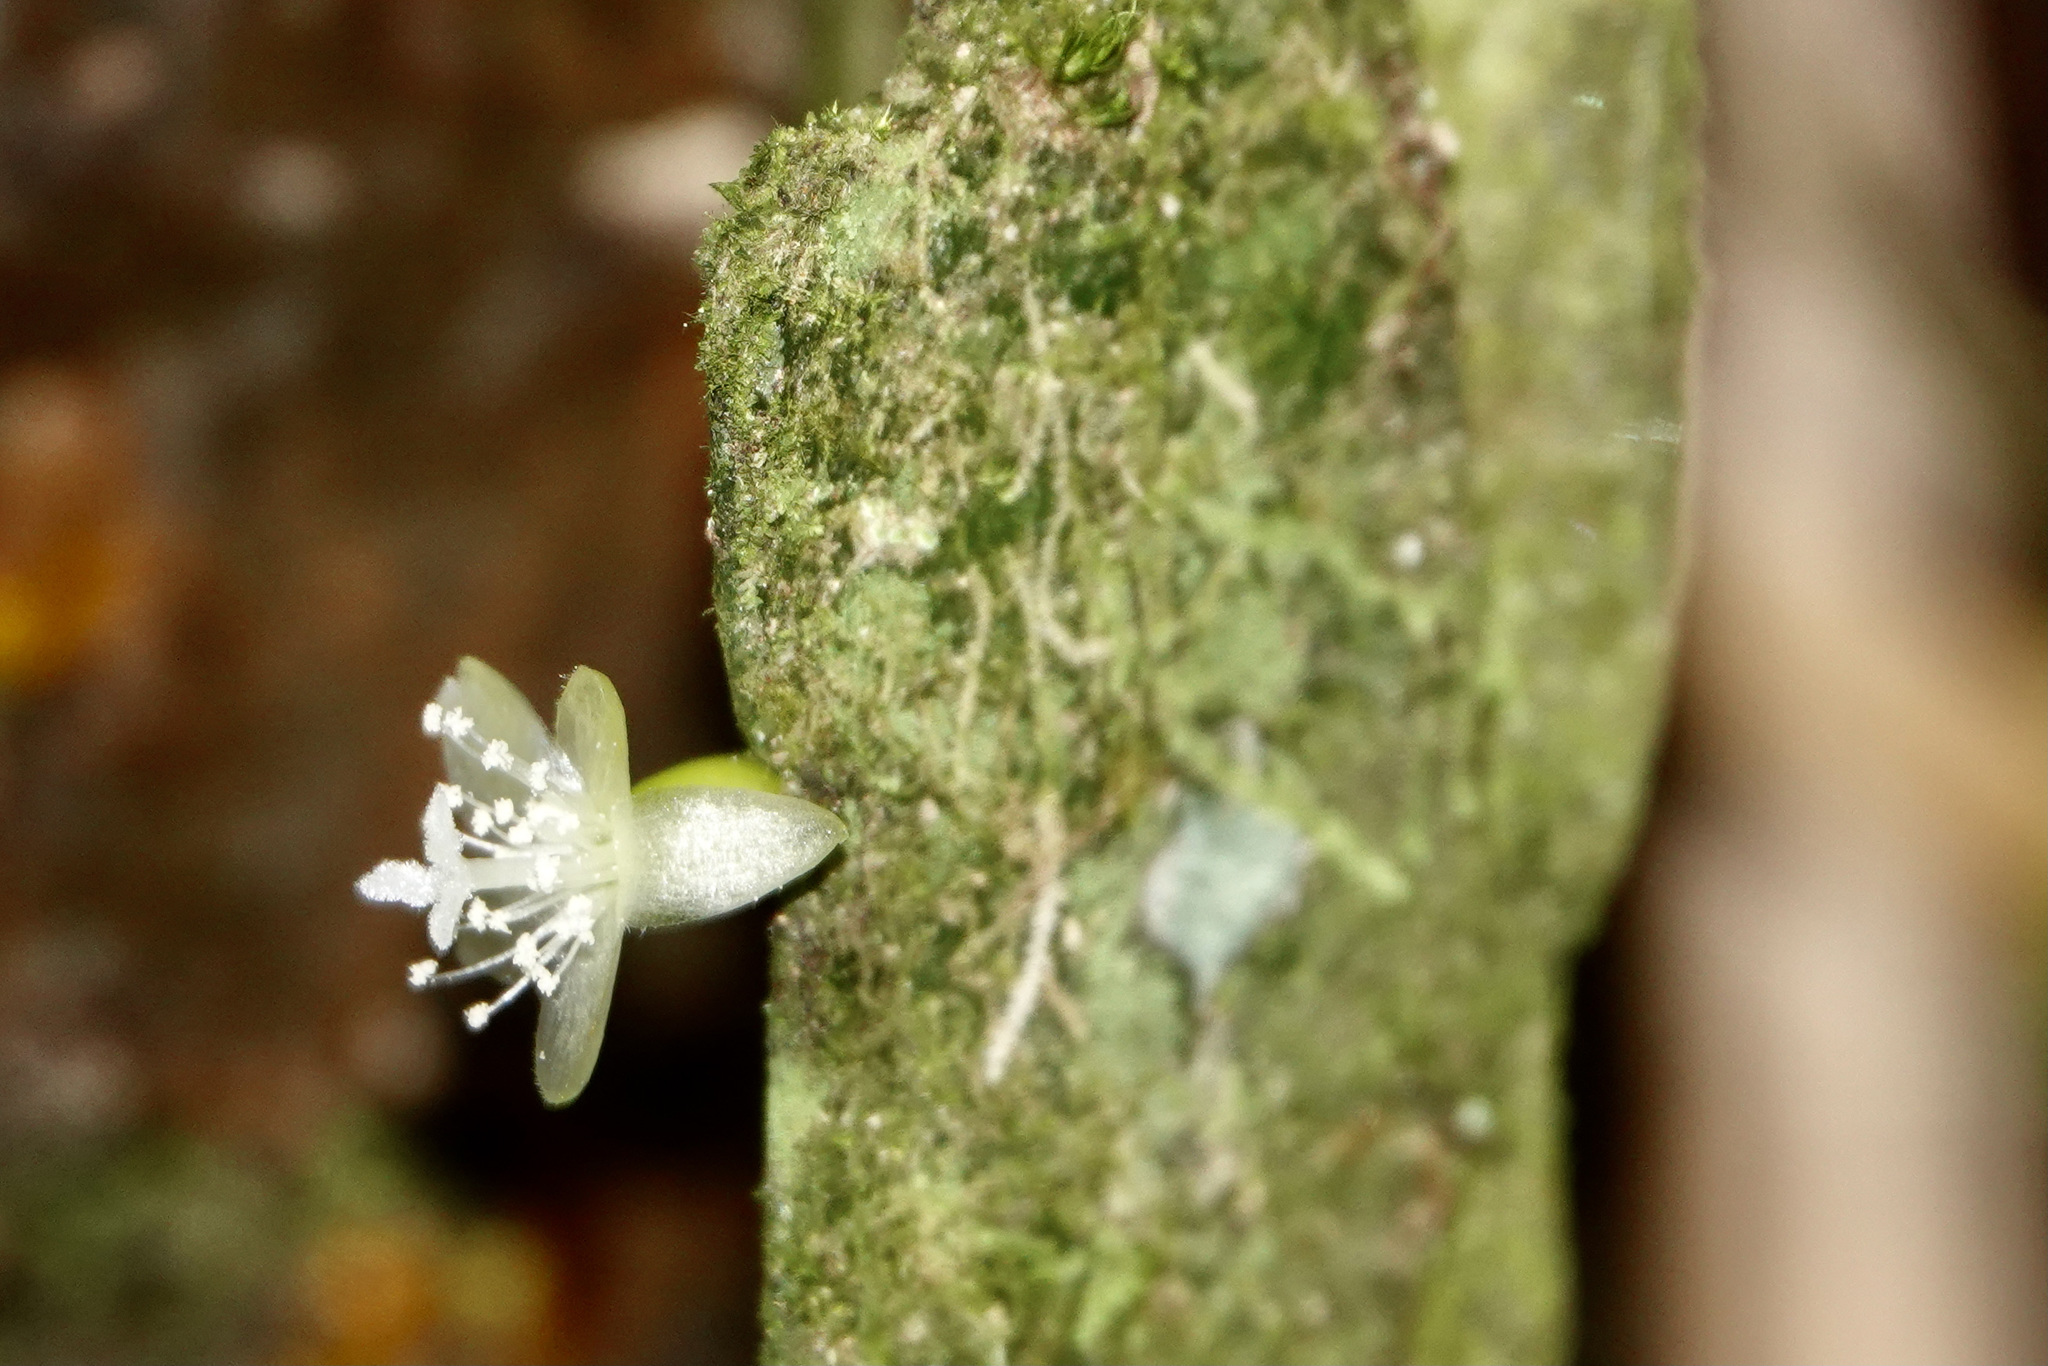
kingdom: Plantae
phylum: Tracheophyta
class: Magnoliopsida
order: Caryophyllales
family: Cactaceae
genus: Rhipsalis
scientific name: Rhipsalis micrantha
